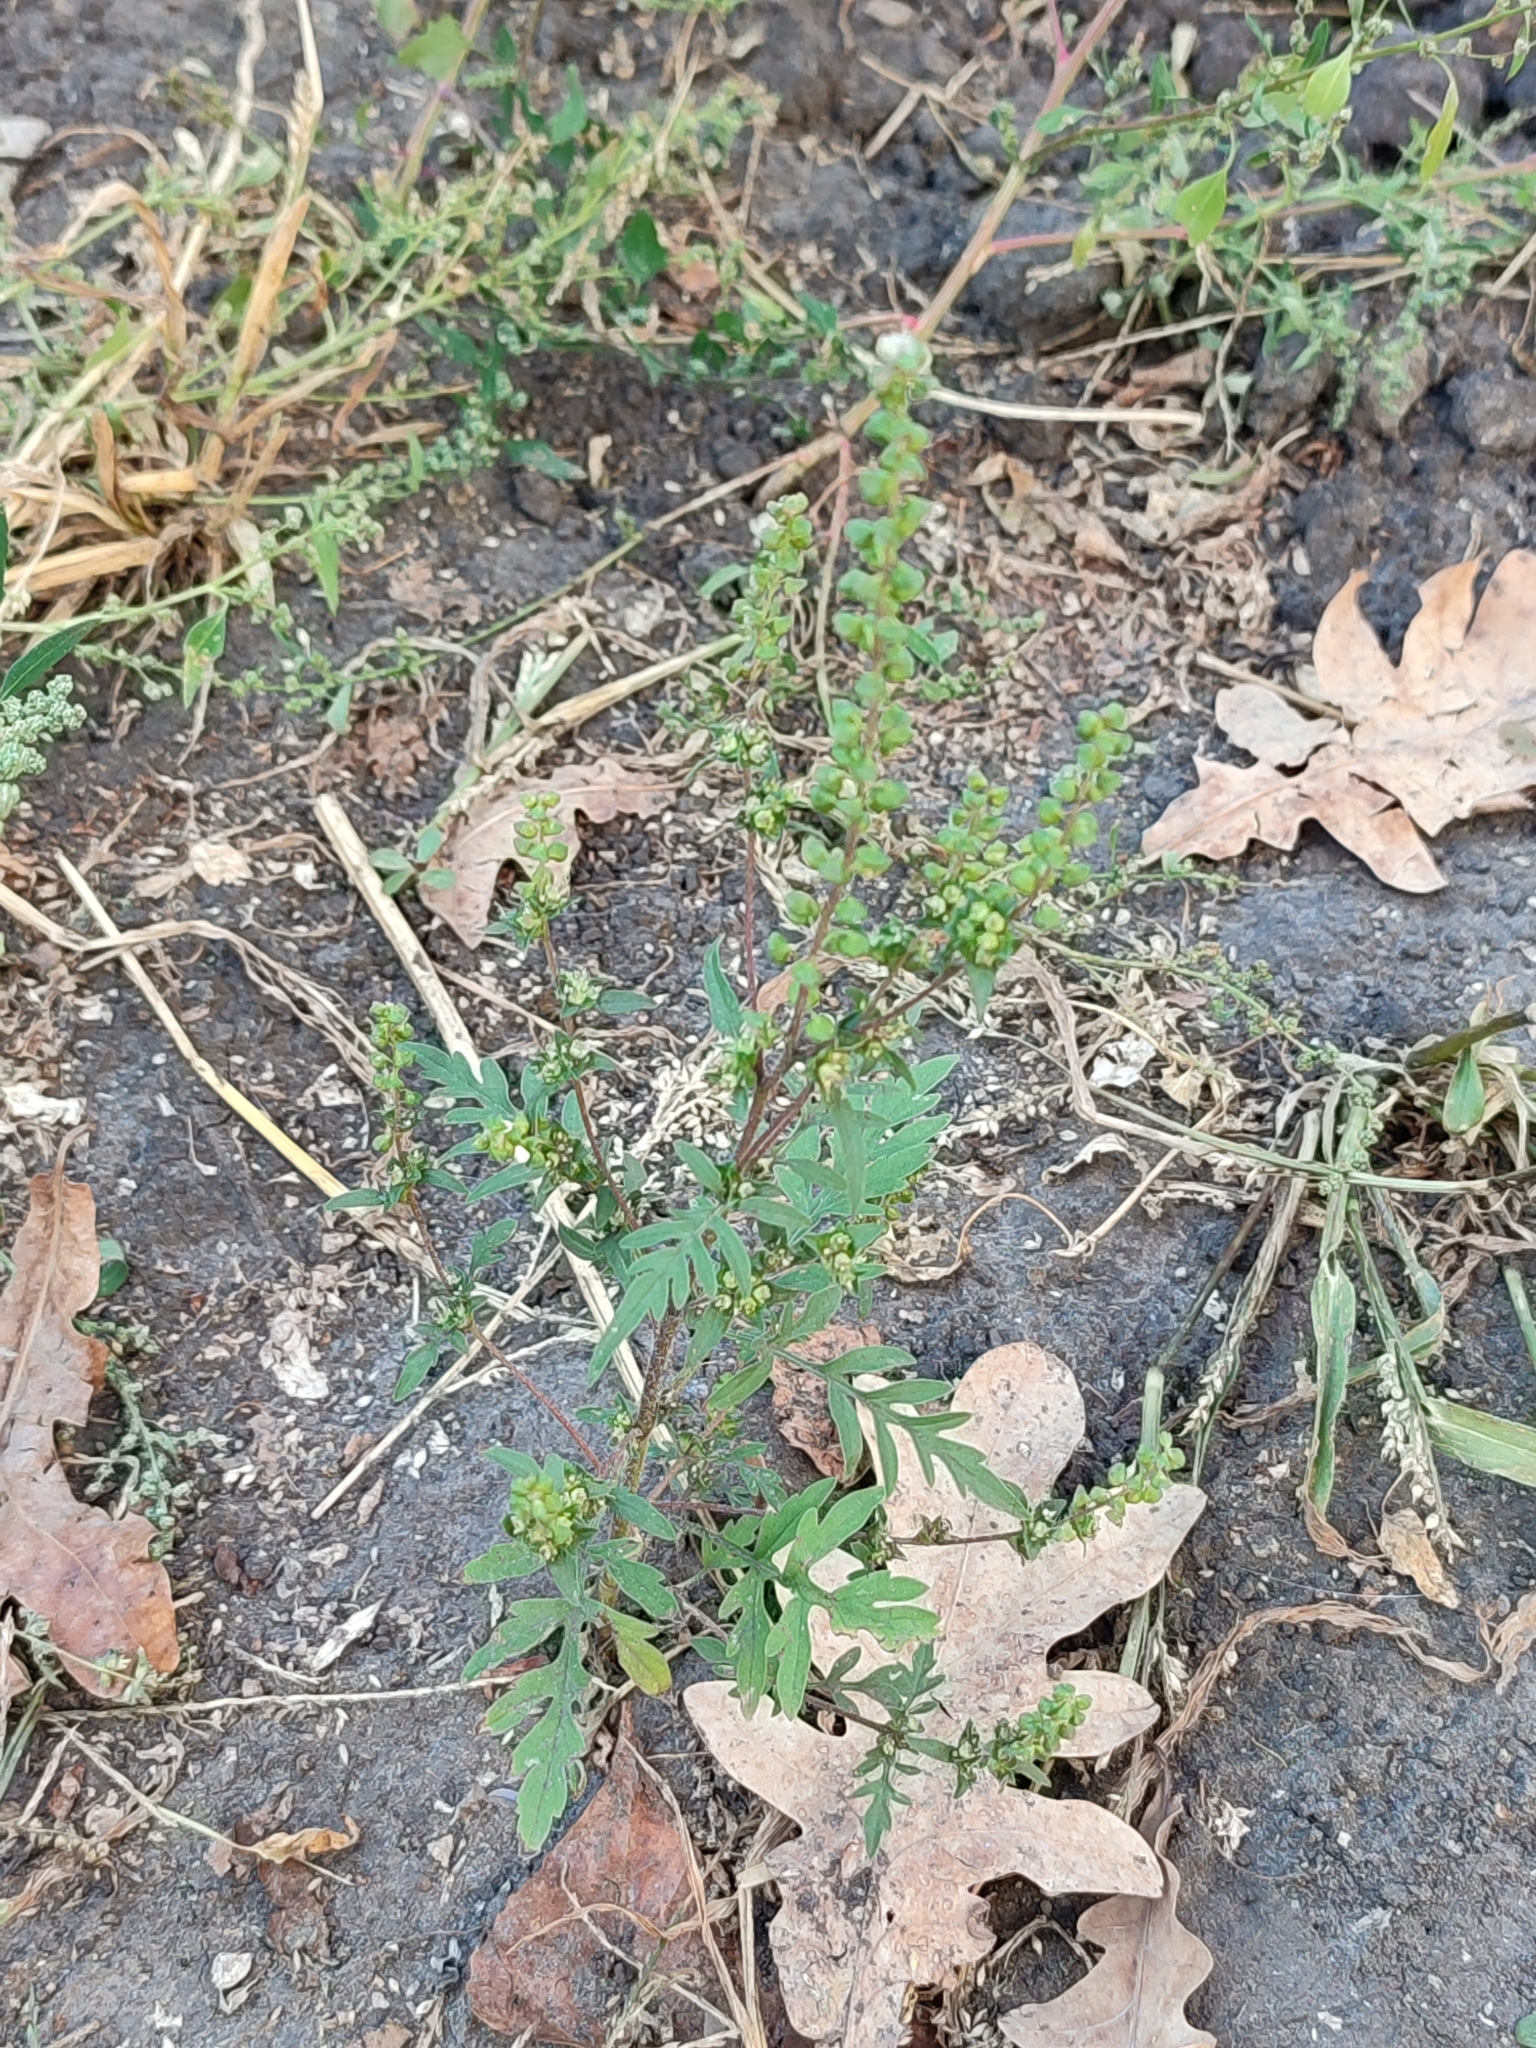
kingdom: Plantae
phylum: Tracheophyta
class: Magnoliopsida
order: Asterales
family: Asteraceae
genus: Ambrosia
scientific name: Ambrosia artemisiifolia
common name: Annual ragweed
